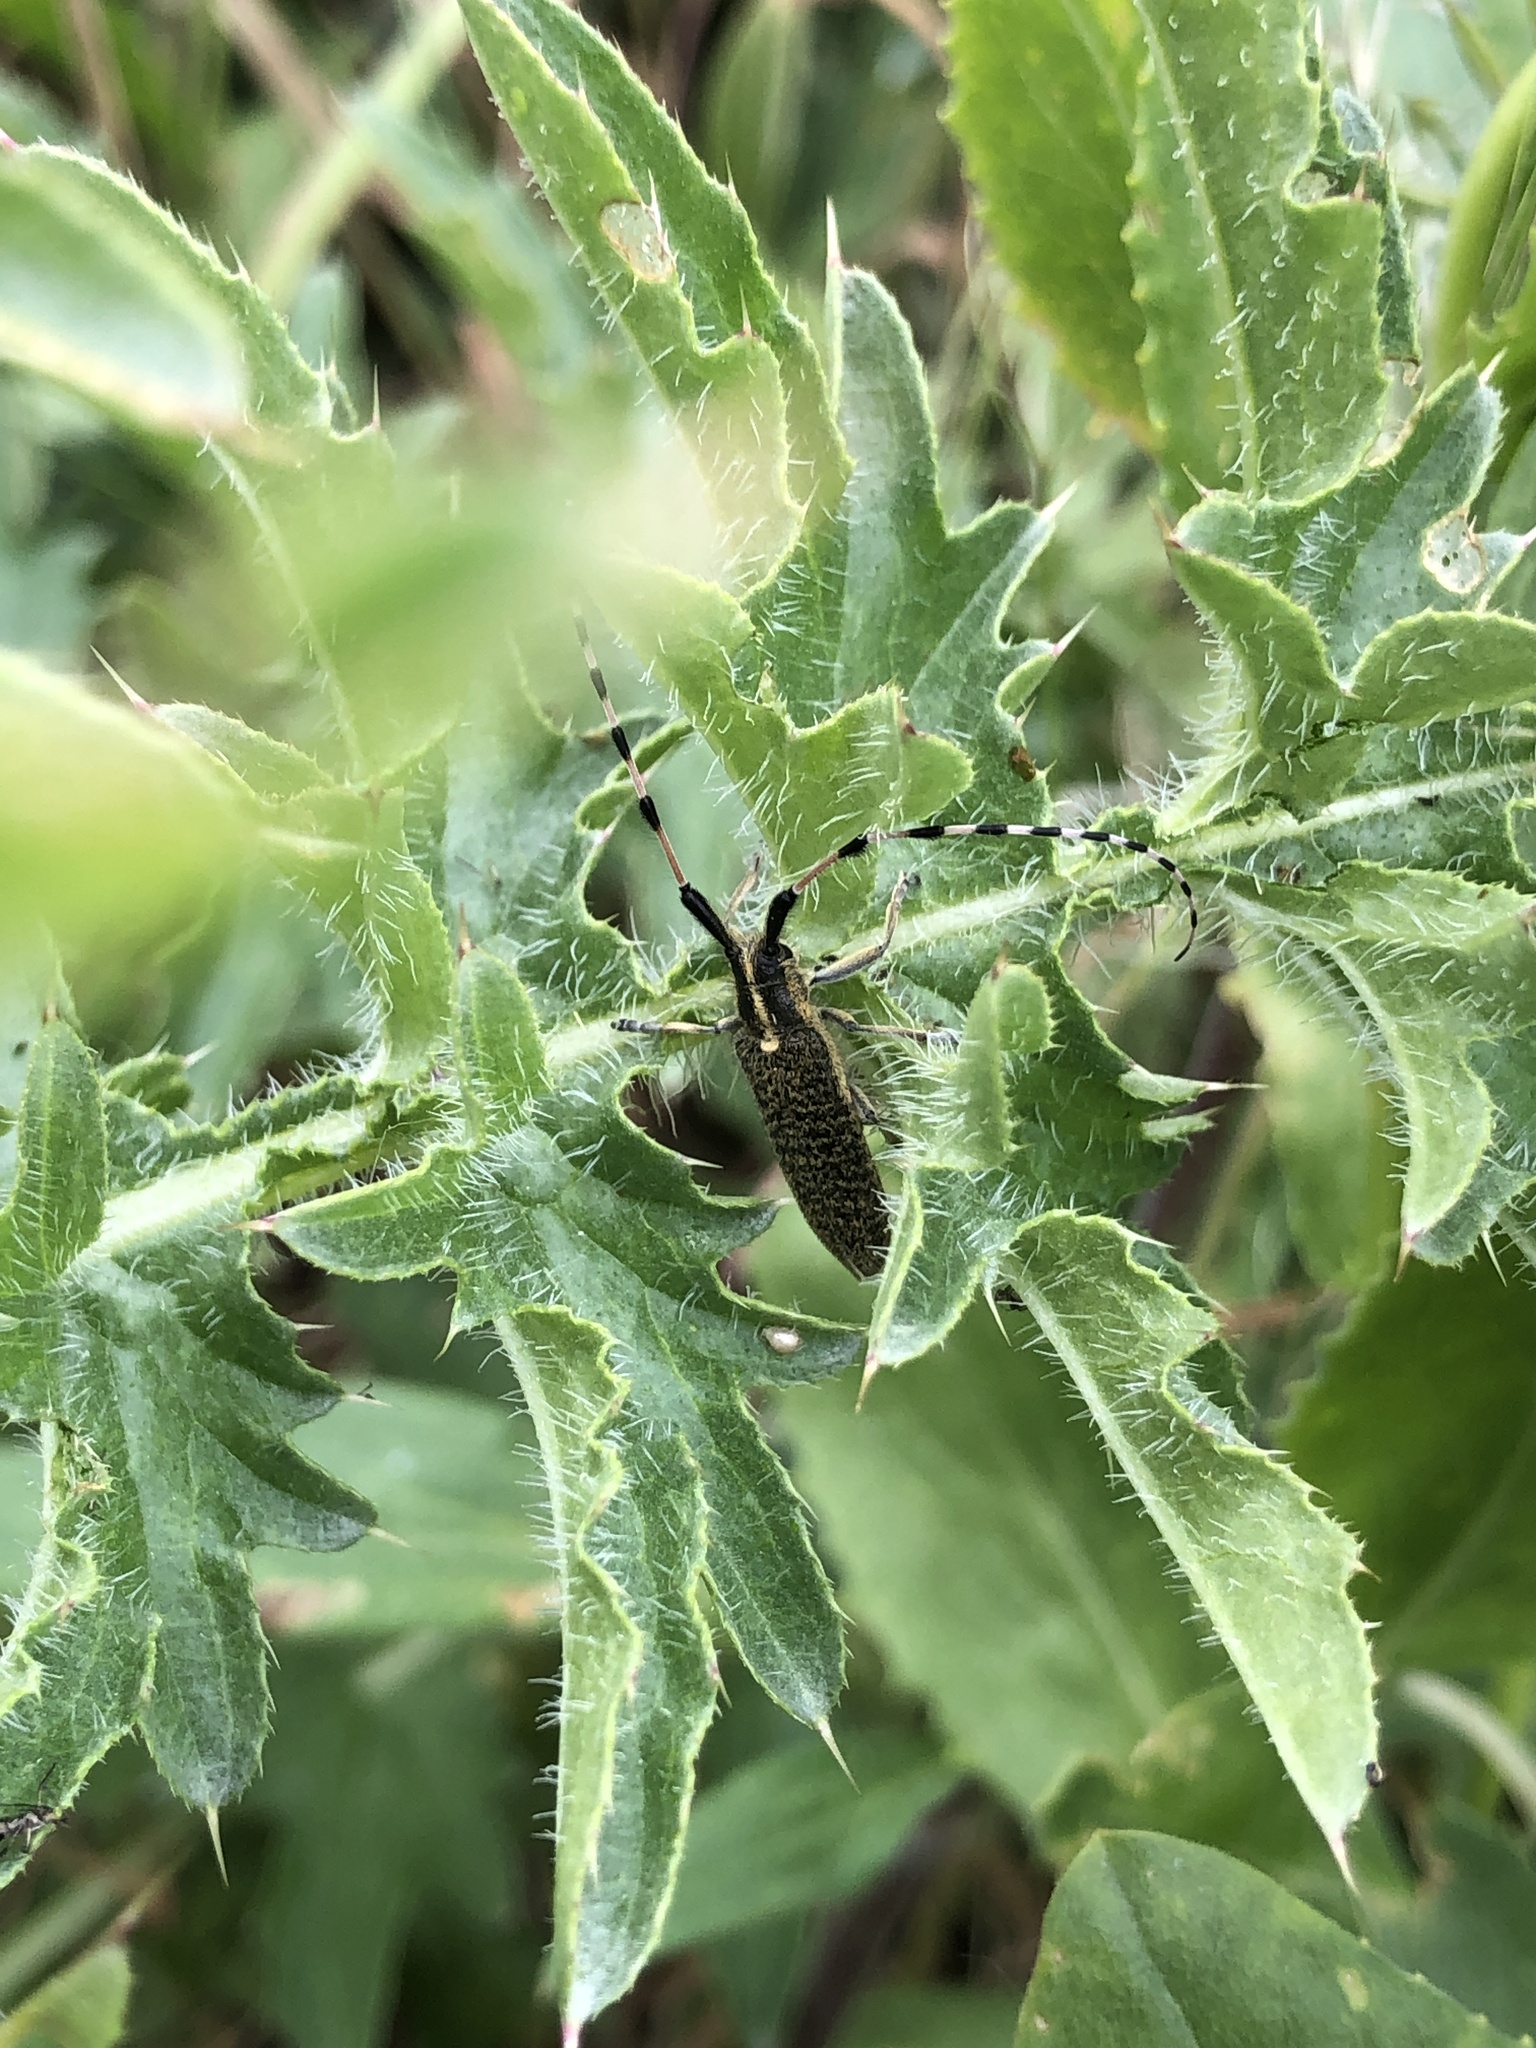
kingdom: Animalia
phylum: Arthropoda
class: Insecta
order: Coleoptera
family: Cerambycidae
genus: Agapanthia
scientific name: Agapanthia dahlii
